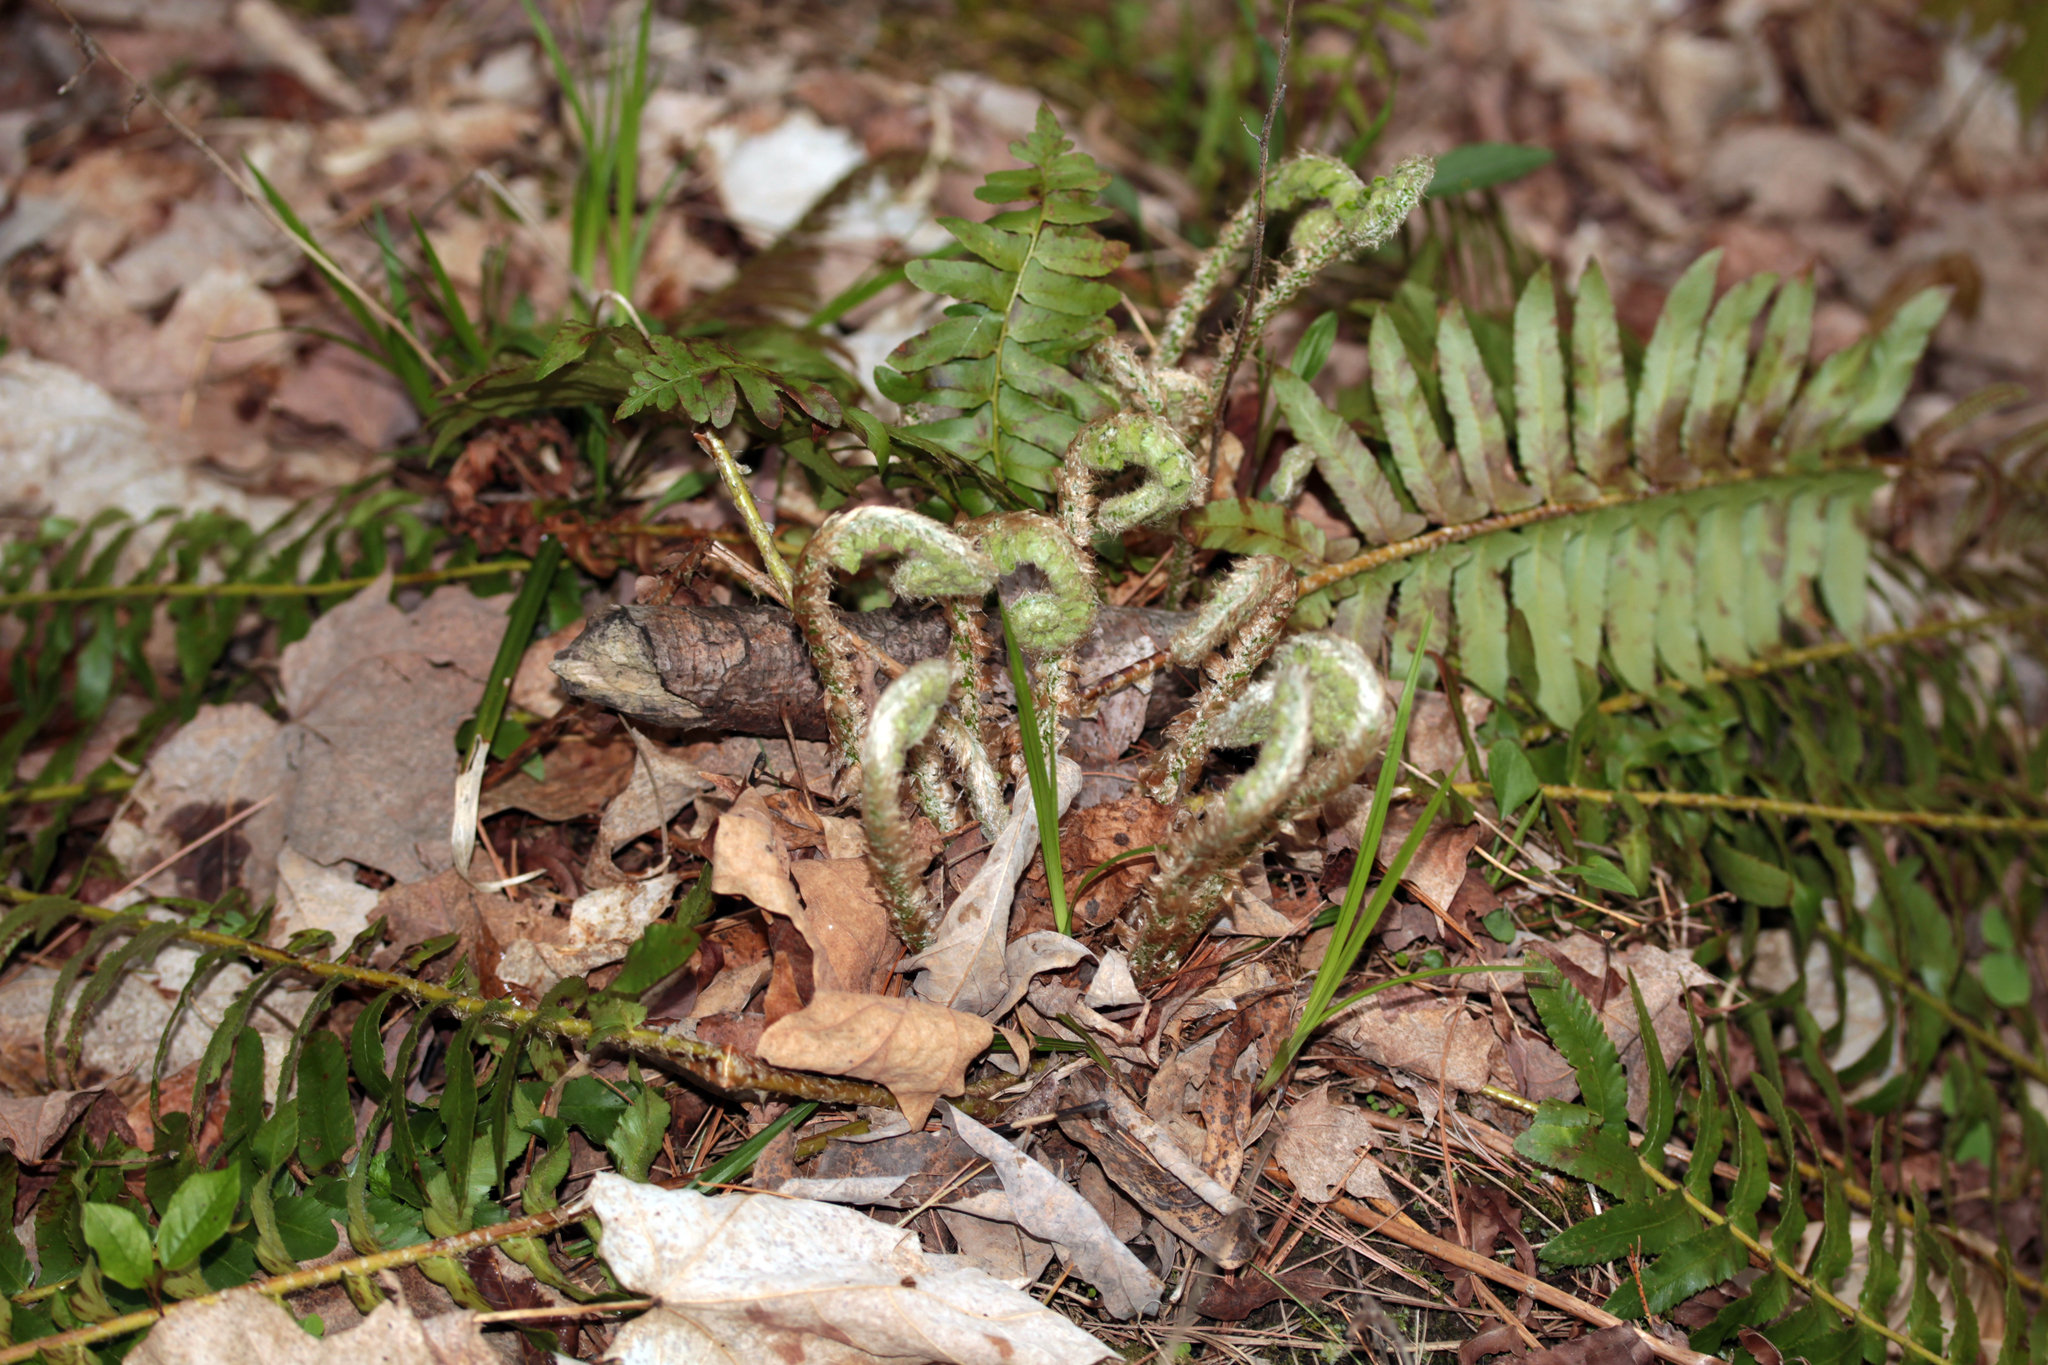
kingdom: Plantae
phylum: Tracheophyta
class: Polypodiopsida
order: Polypodiales
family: Dryopteridaceae
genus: Polystichum
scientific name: Polystichum acrostichoides
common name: Christmas fern
